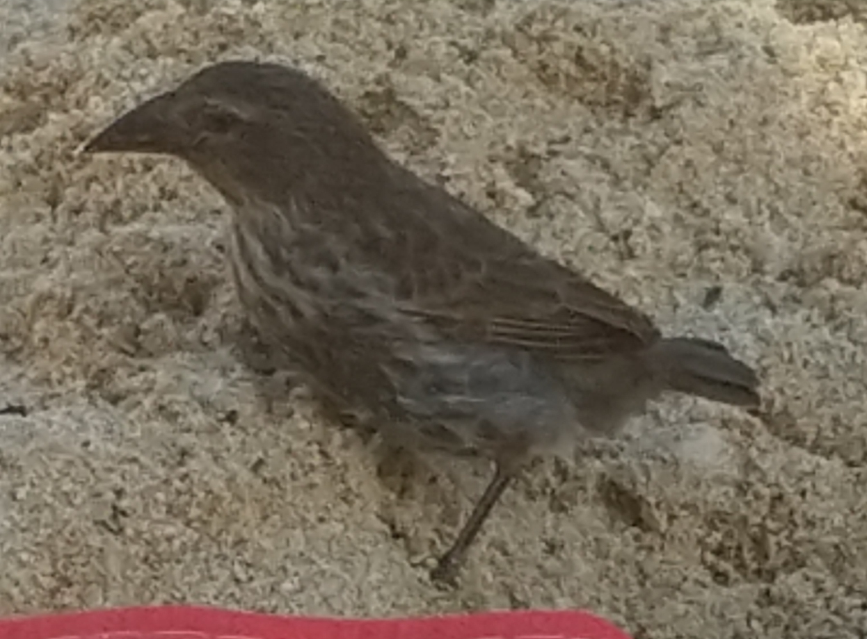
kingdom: Animalia
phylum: Chordata
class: Aves
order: Passeriformes
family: Thraupidae
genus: Geospiza
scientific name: Geospiza scandens
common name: Common cactus-finch
